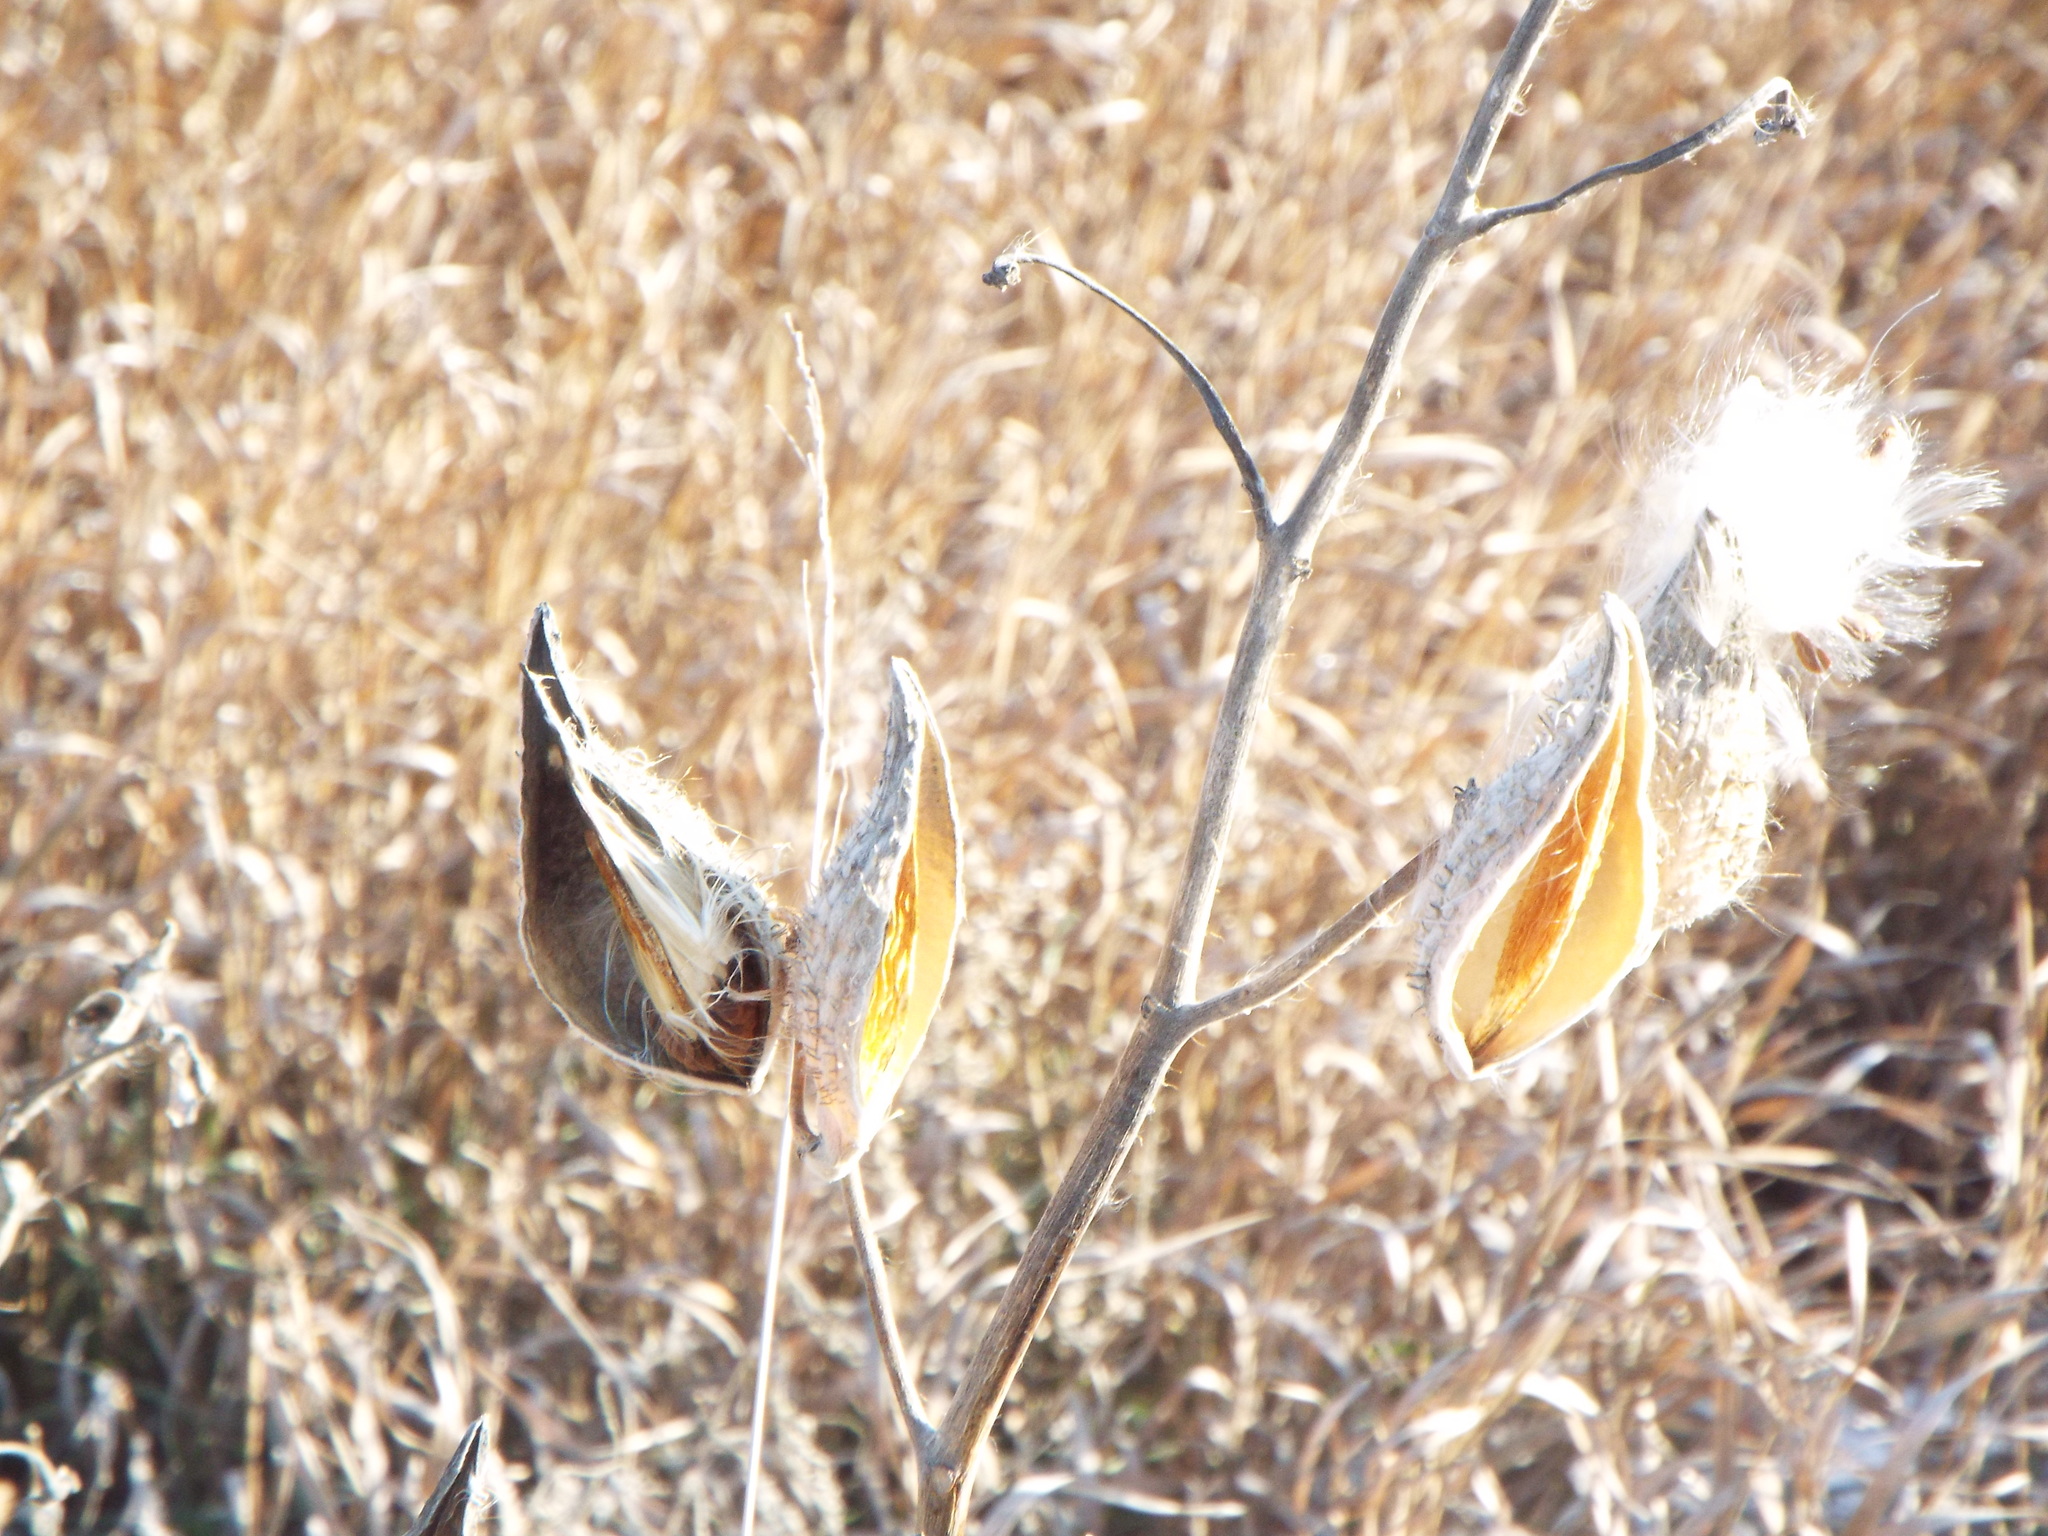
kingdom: Plantae
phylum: Tracheophyta
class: Magnoliopsida
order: Gentianales
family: Apocynaceae
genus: Asclepias
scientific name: Asclepias syriaca
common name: Common milkweed
